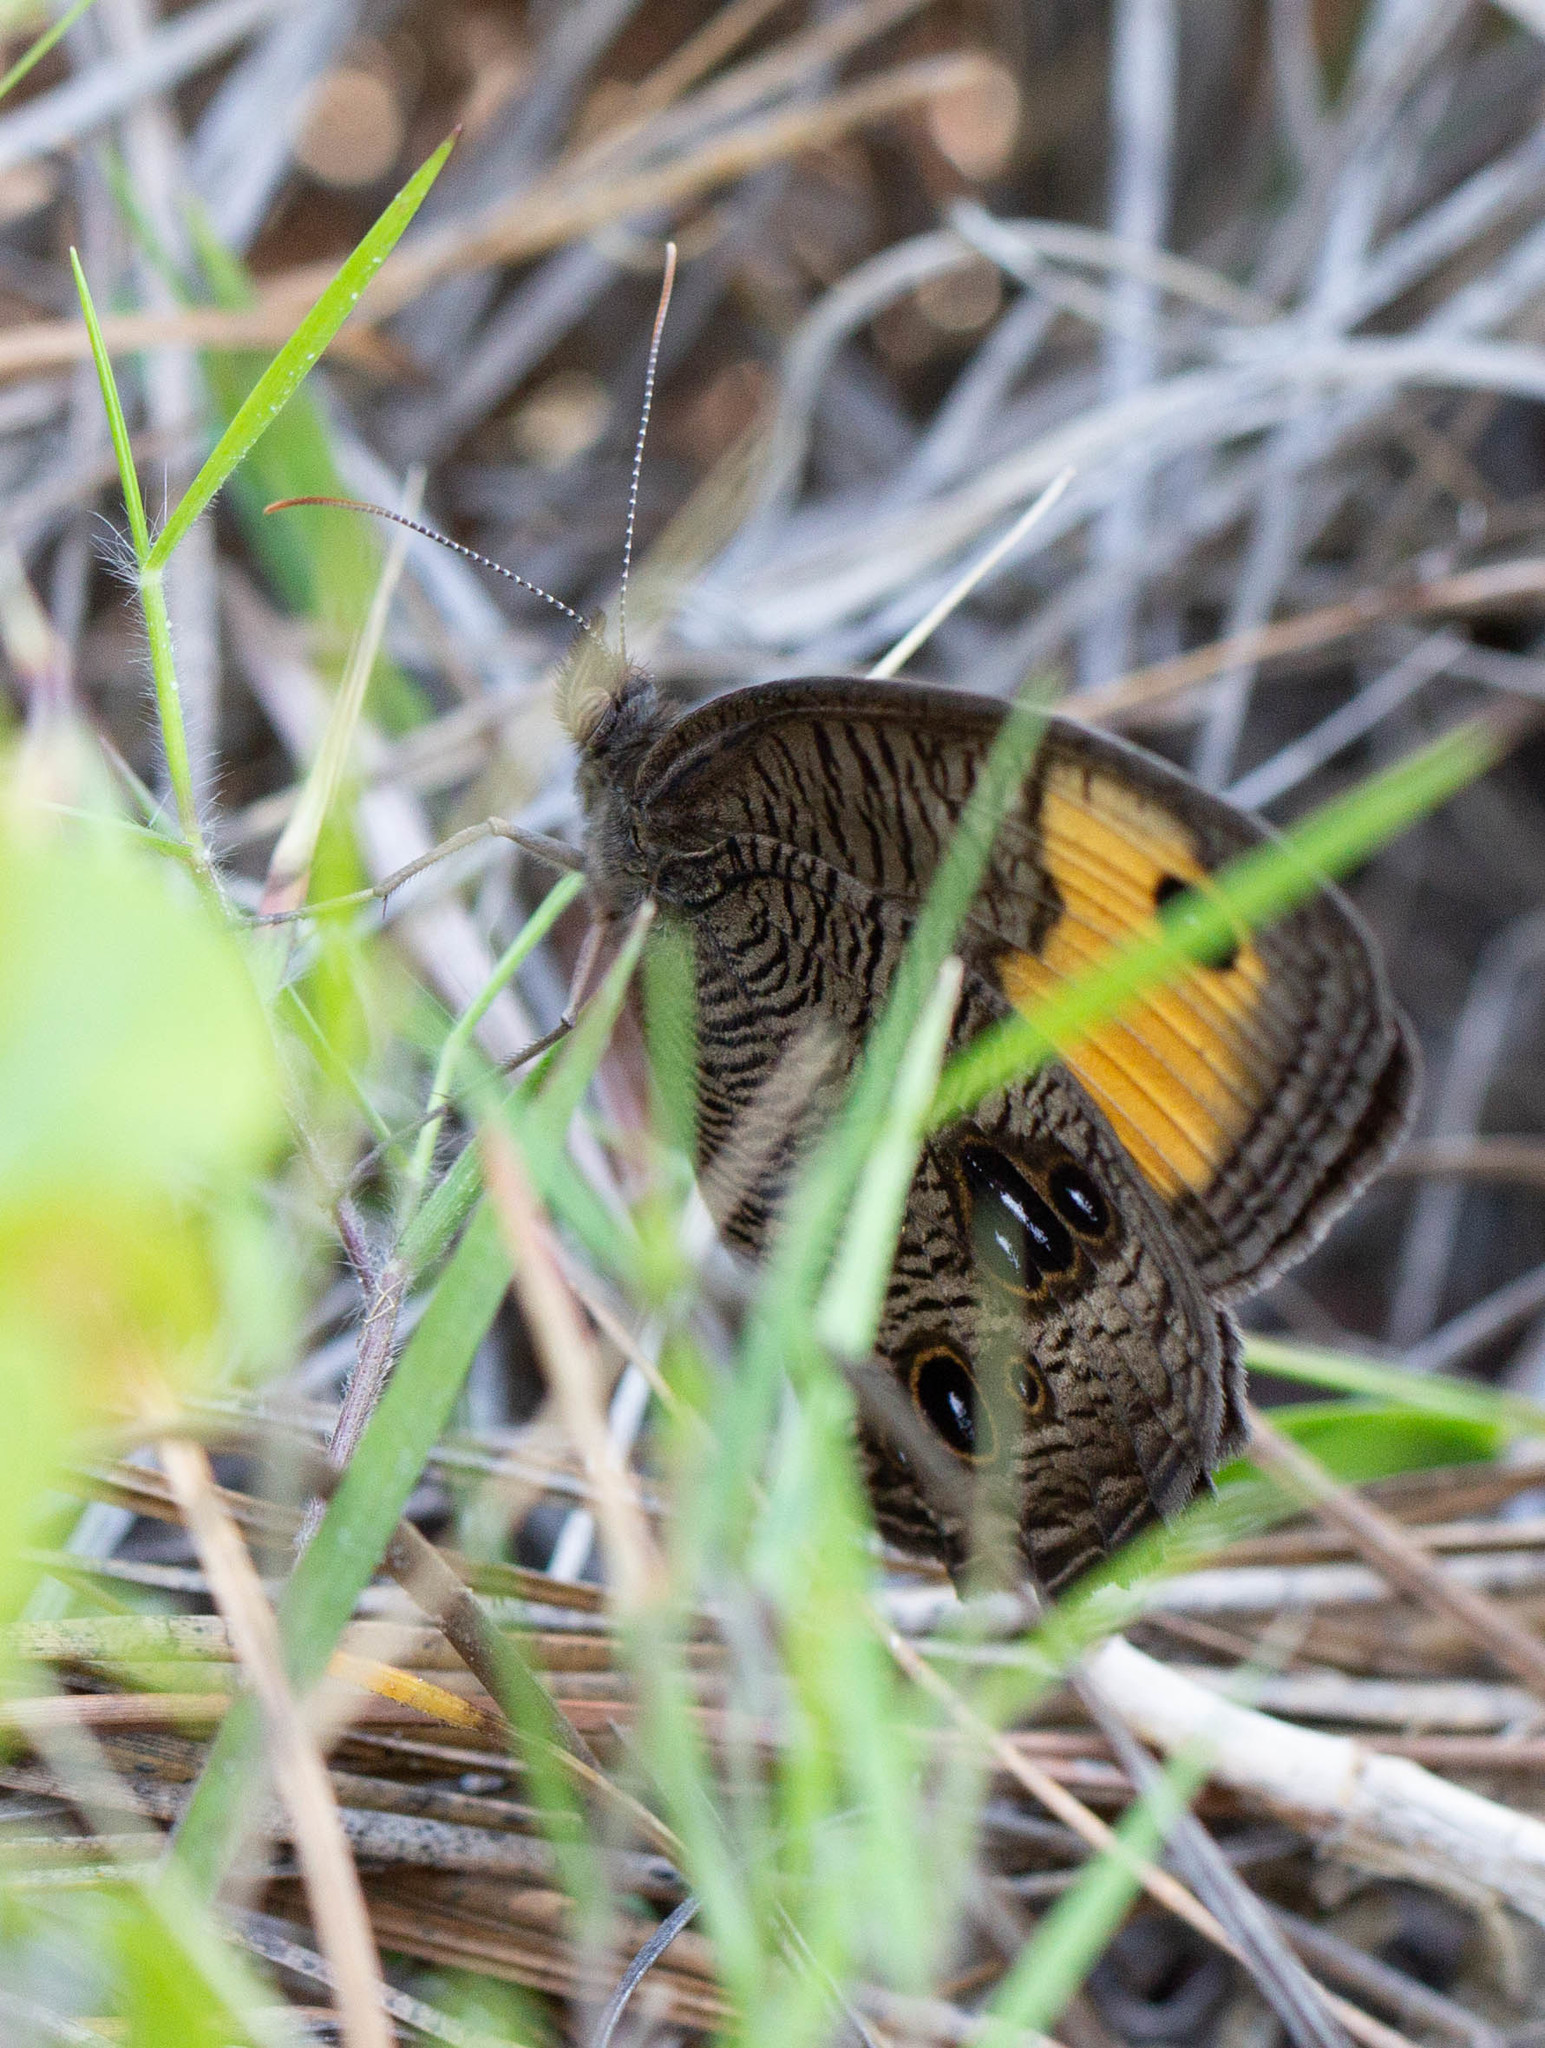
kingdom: Animalia
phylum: Arthropoda
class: Insecta
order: Lepidoptera
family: Nymphalidae
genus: Cercyonis
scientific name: Cercyonis pegala
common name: Common wood-nymph
